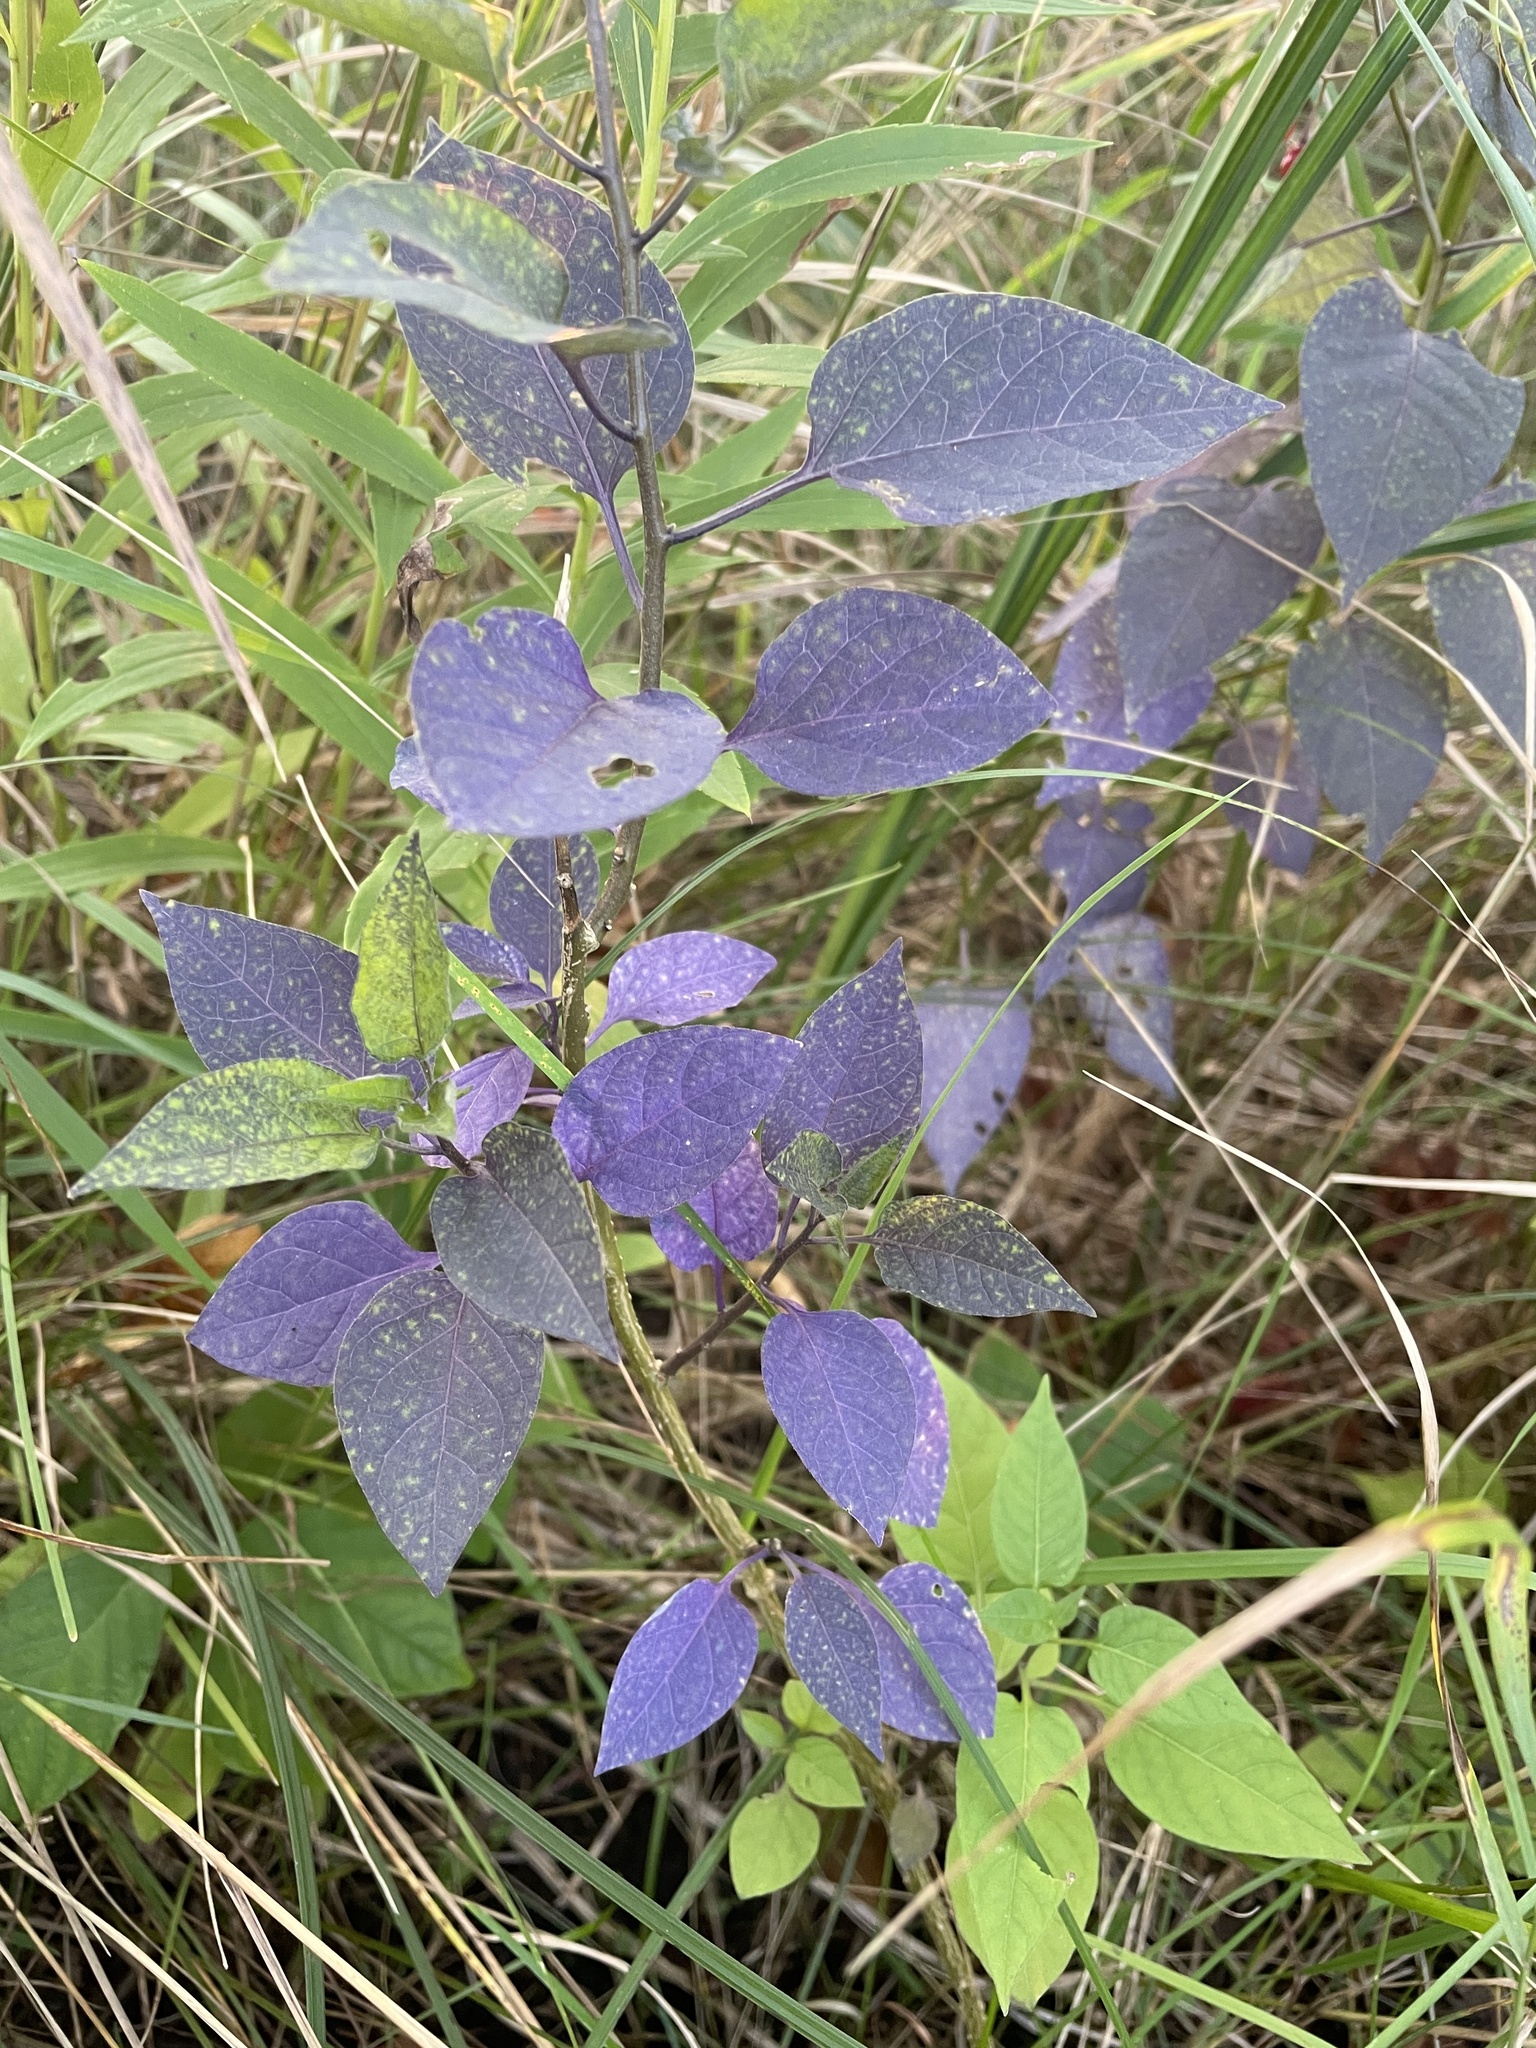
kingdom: Plantae
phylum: Tracheophyta
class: Magnoliopsida
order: Solanales
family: Solanaceae
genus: Solanum
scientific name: Solanum dulcamara
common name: Climbing nightshade
